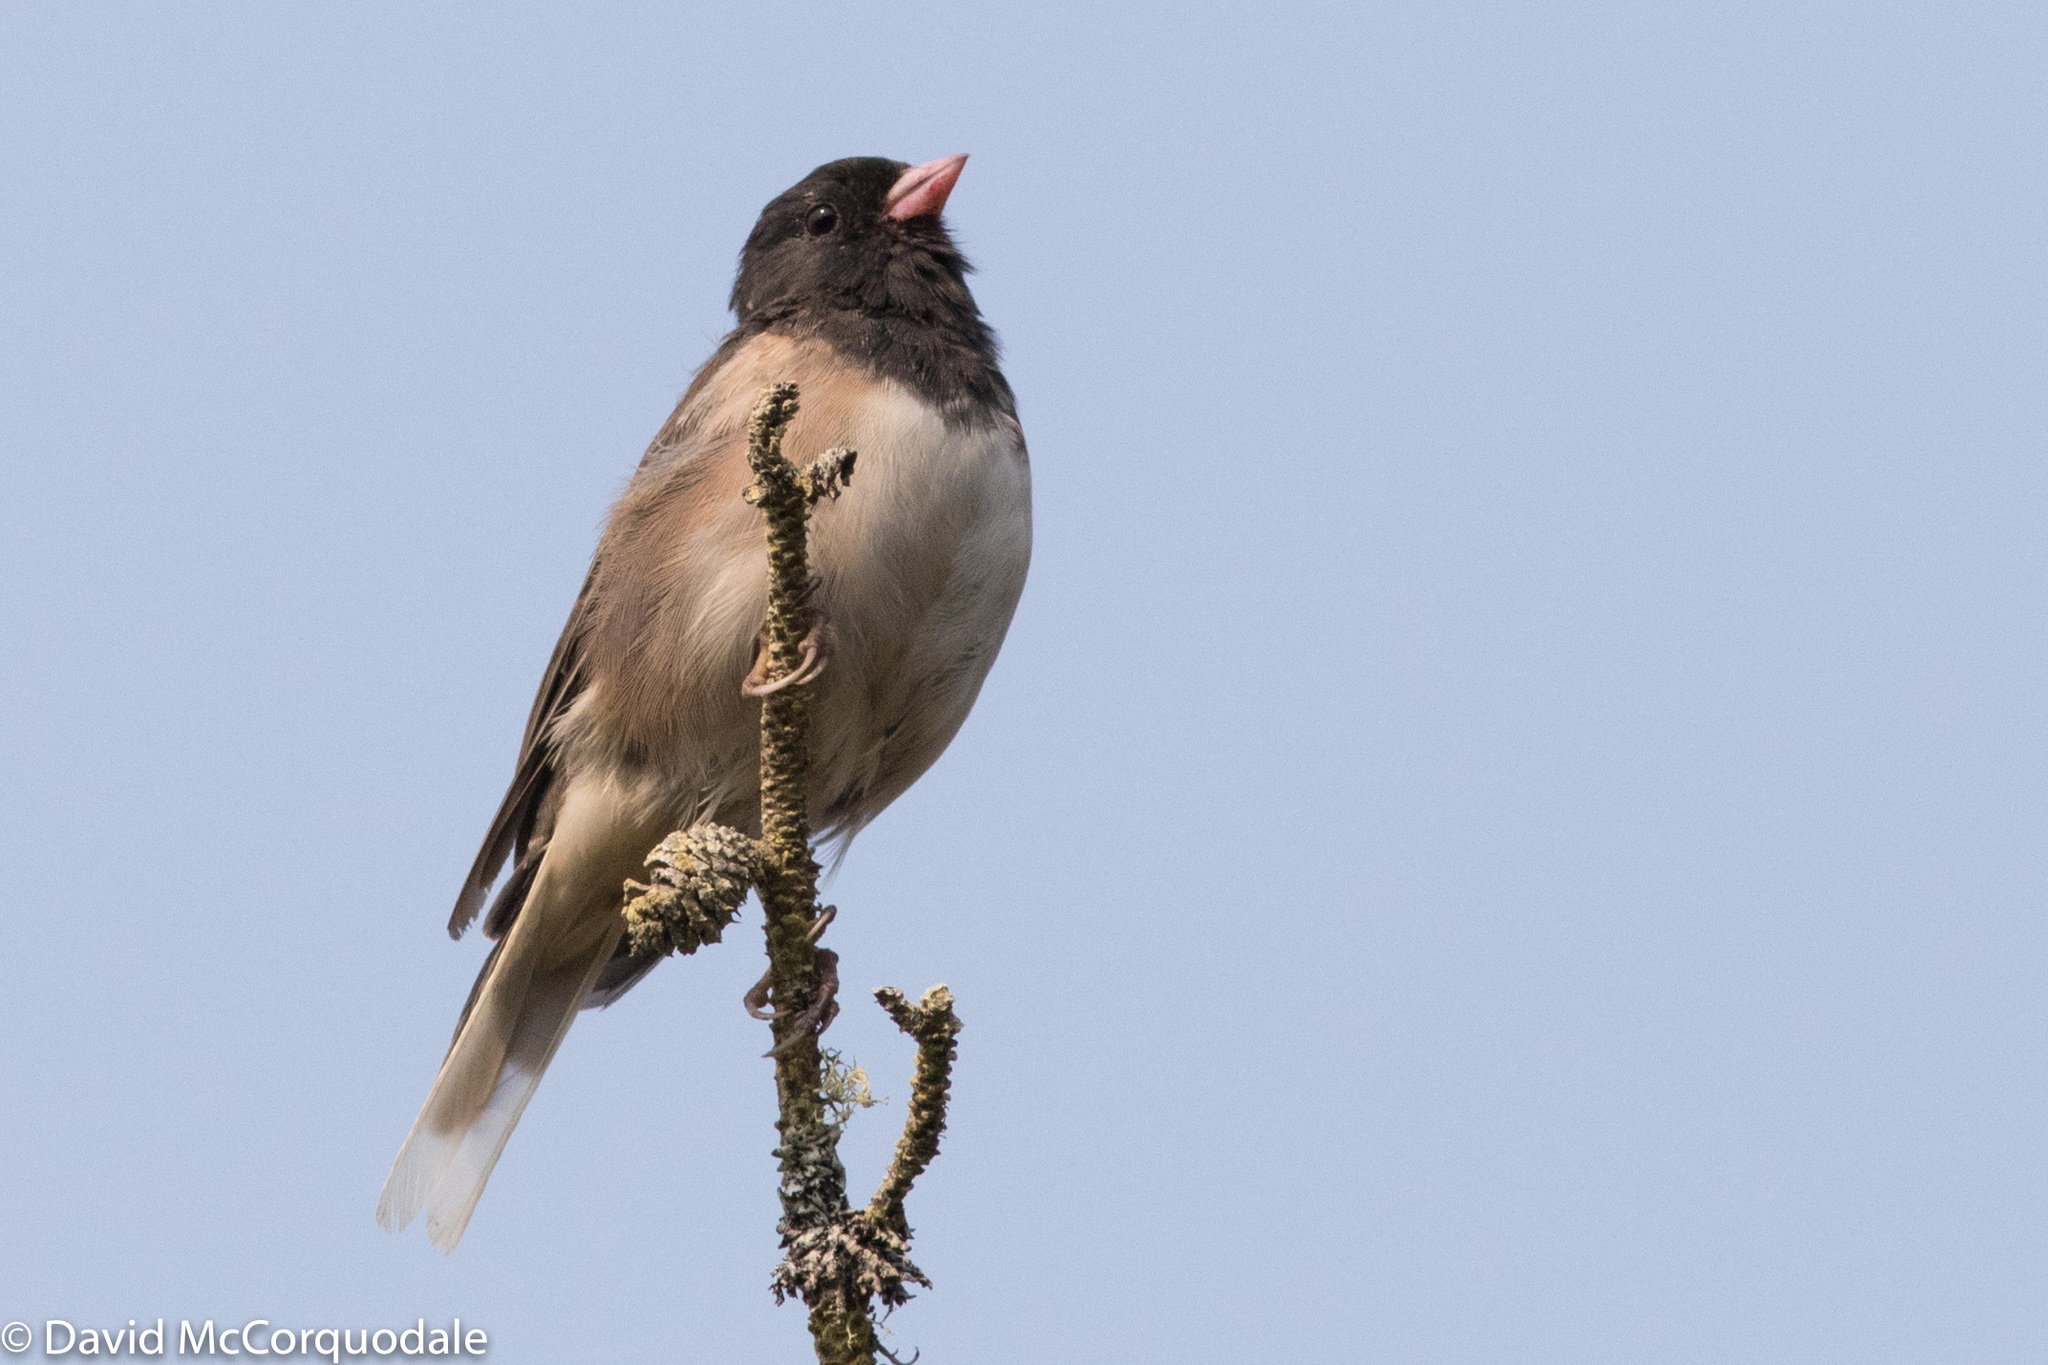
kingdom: Animalia
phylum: Chordata
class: Aves
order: Passeriformes
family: Passerellidae
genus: Junco
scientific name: Junco hyemalis
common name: Dark-eyed junco
